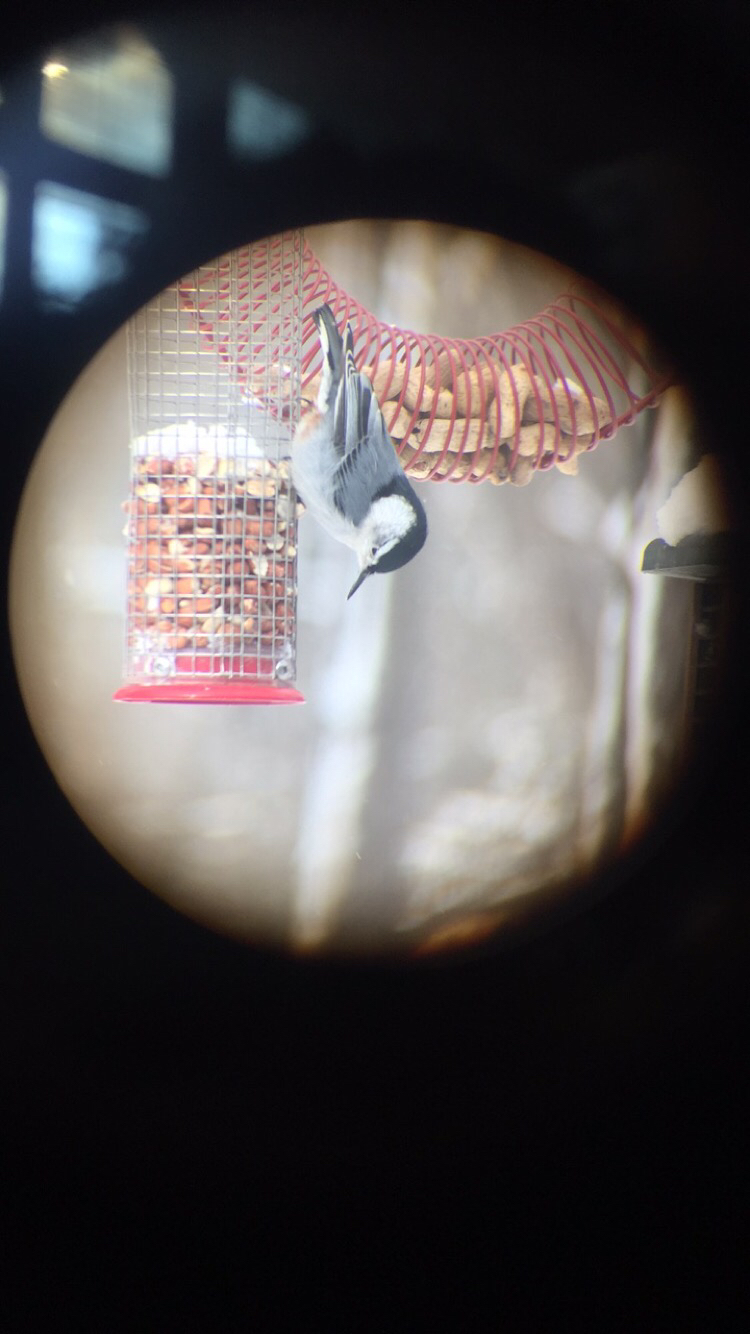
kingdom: Animalia
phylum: Chordata
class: Aves
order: Passeriformes
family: Sittidae
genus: Sitta
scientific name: Sitta carolinensis
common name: White-breasted nuthatch
